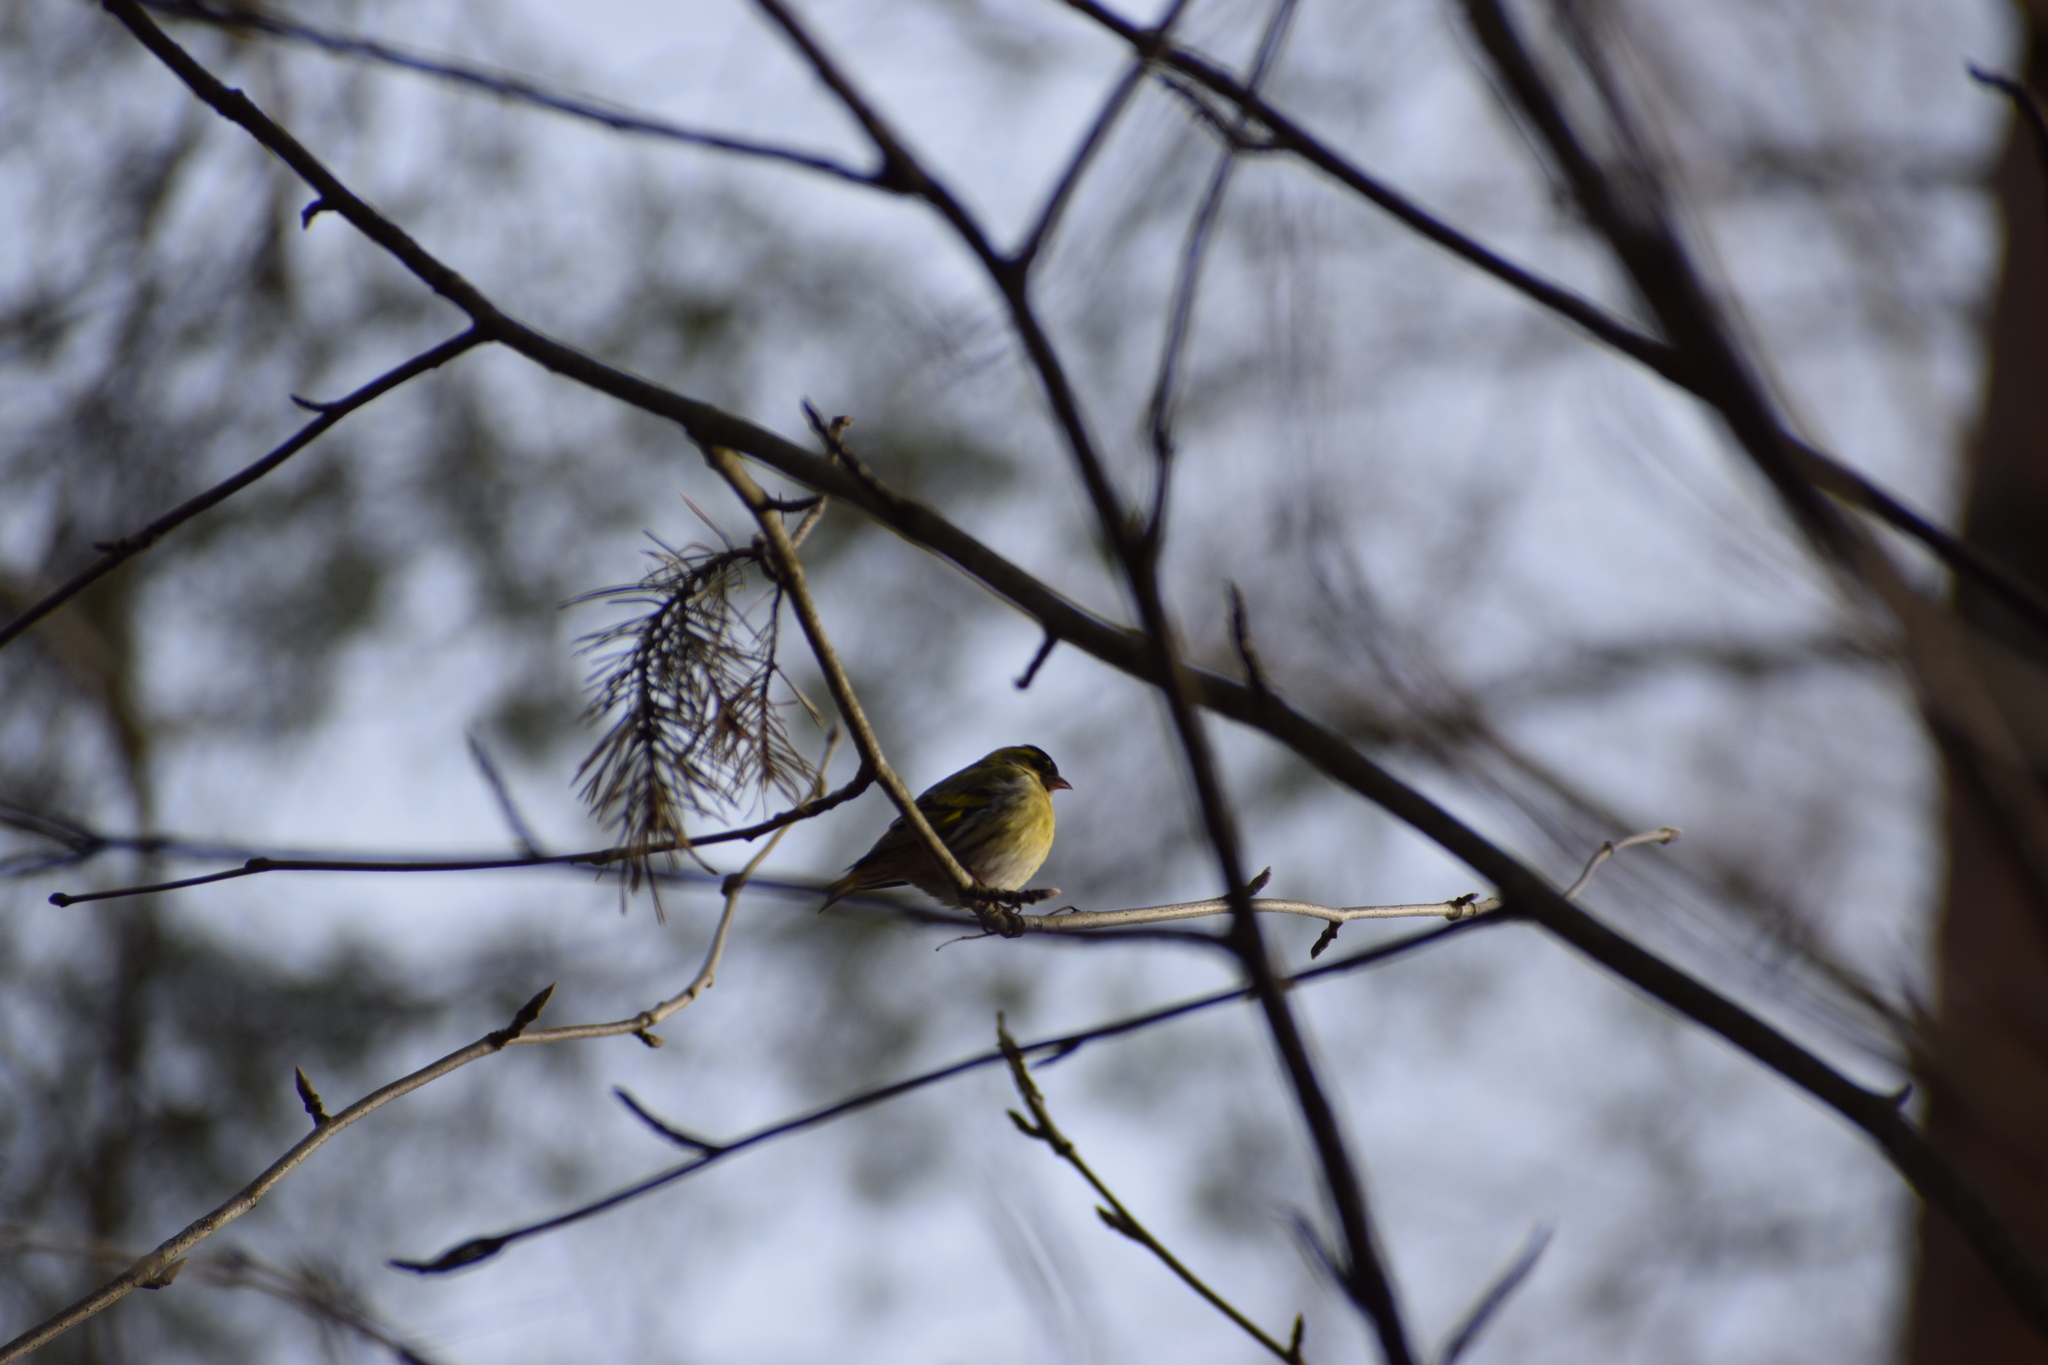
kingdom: Animalia
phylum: Chordata
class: Aves
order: Passeriformes
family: Fringillidae
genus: Spinus
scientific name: Spinus spinus
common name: Eurasian siskin
